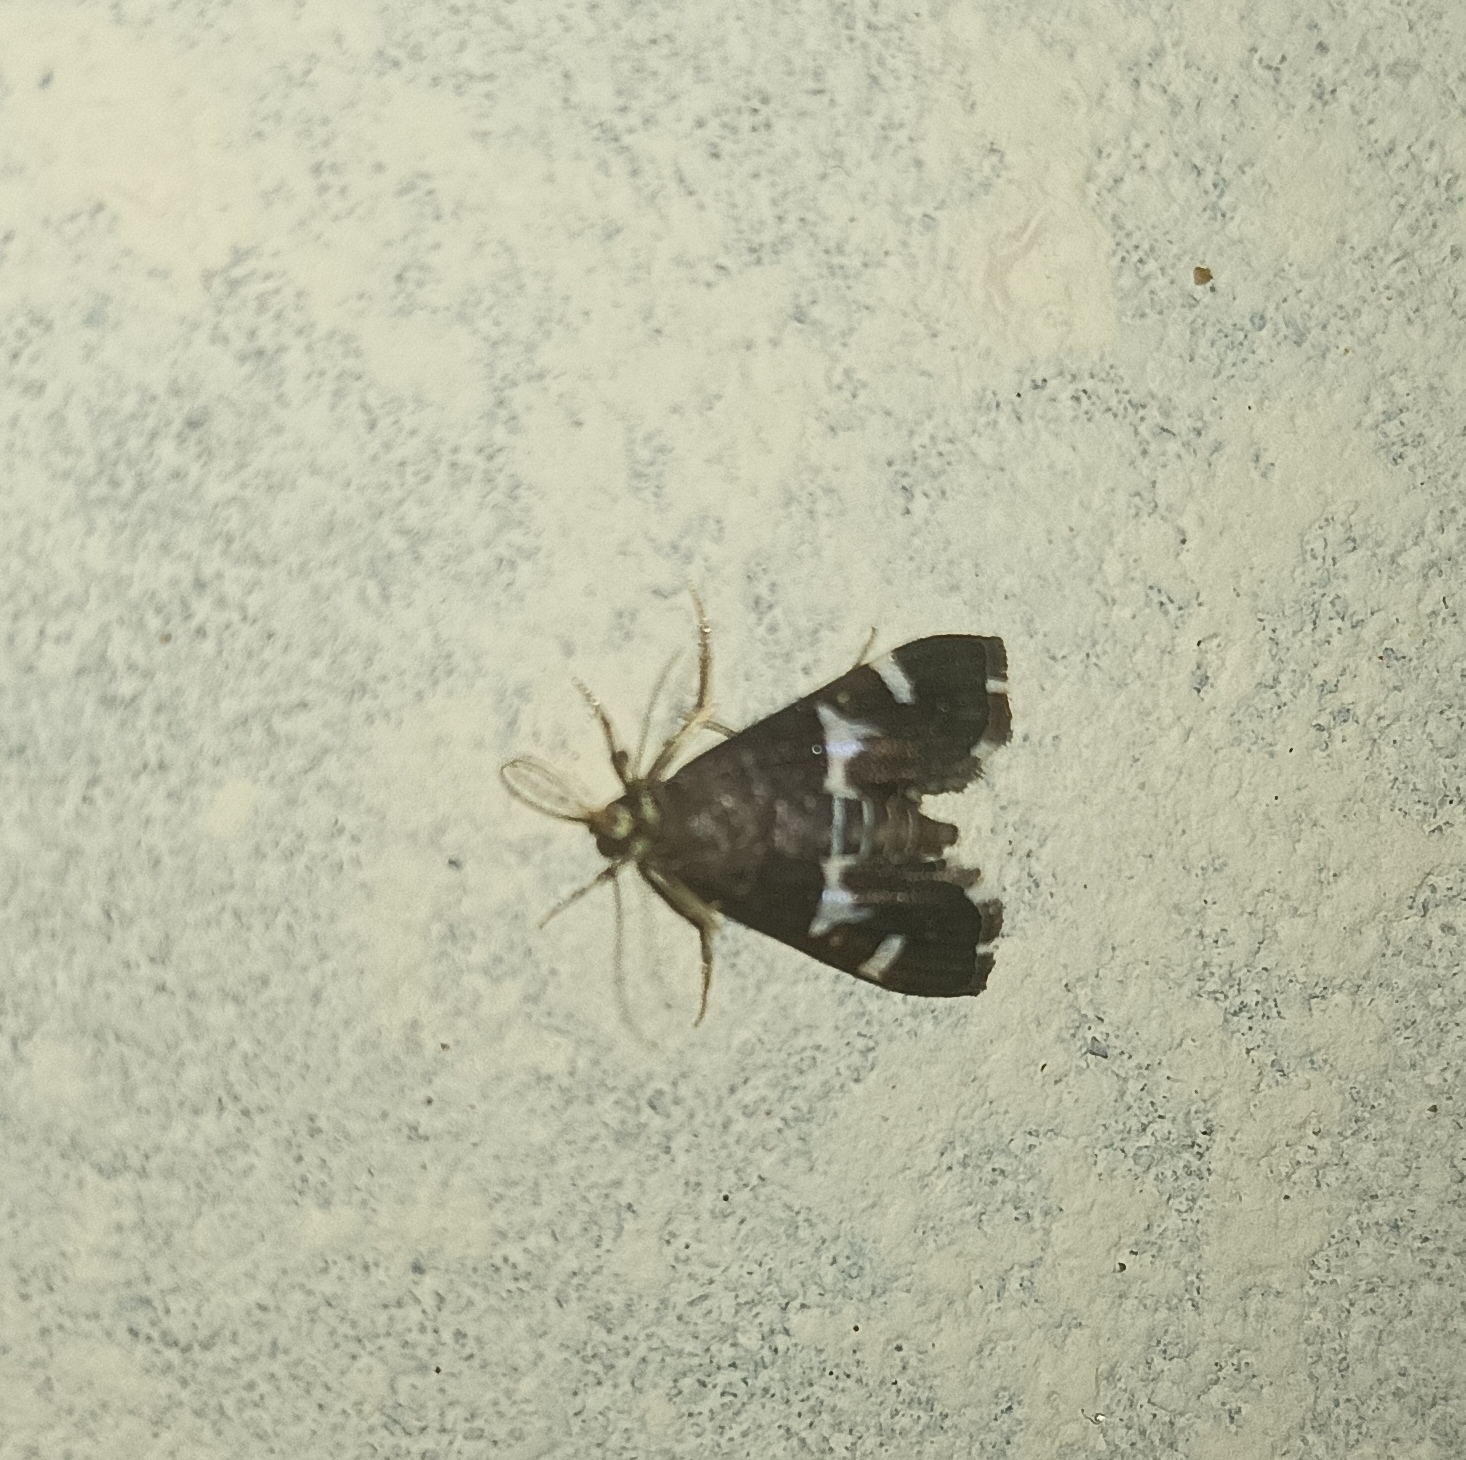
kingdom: Animalia
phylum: Arthropoda
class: Insecta
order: Lepidoptera
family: Crambidae
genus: Spoladea
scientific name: Spoladea recurvalis
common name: Beet webworm moth
